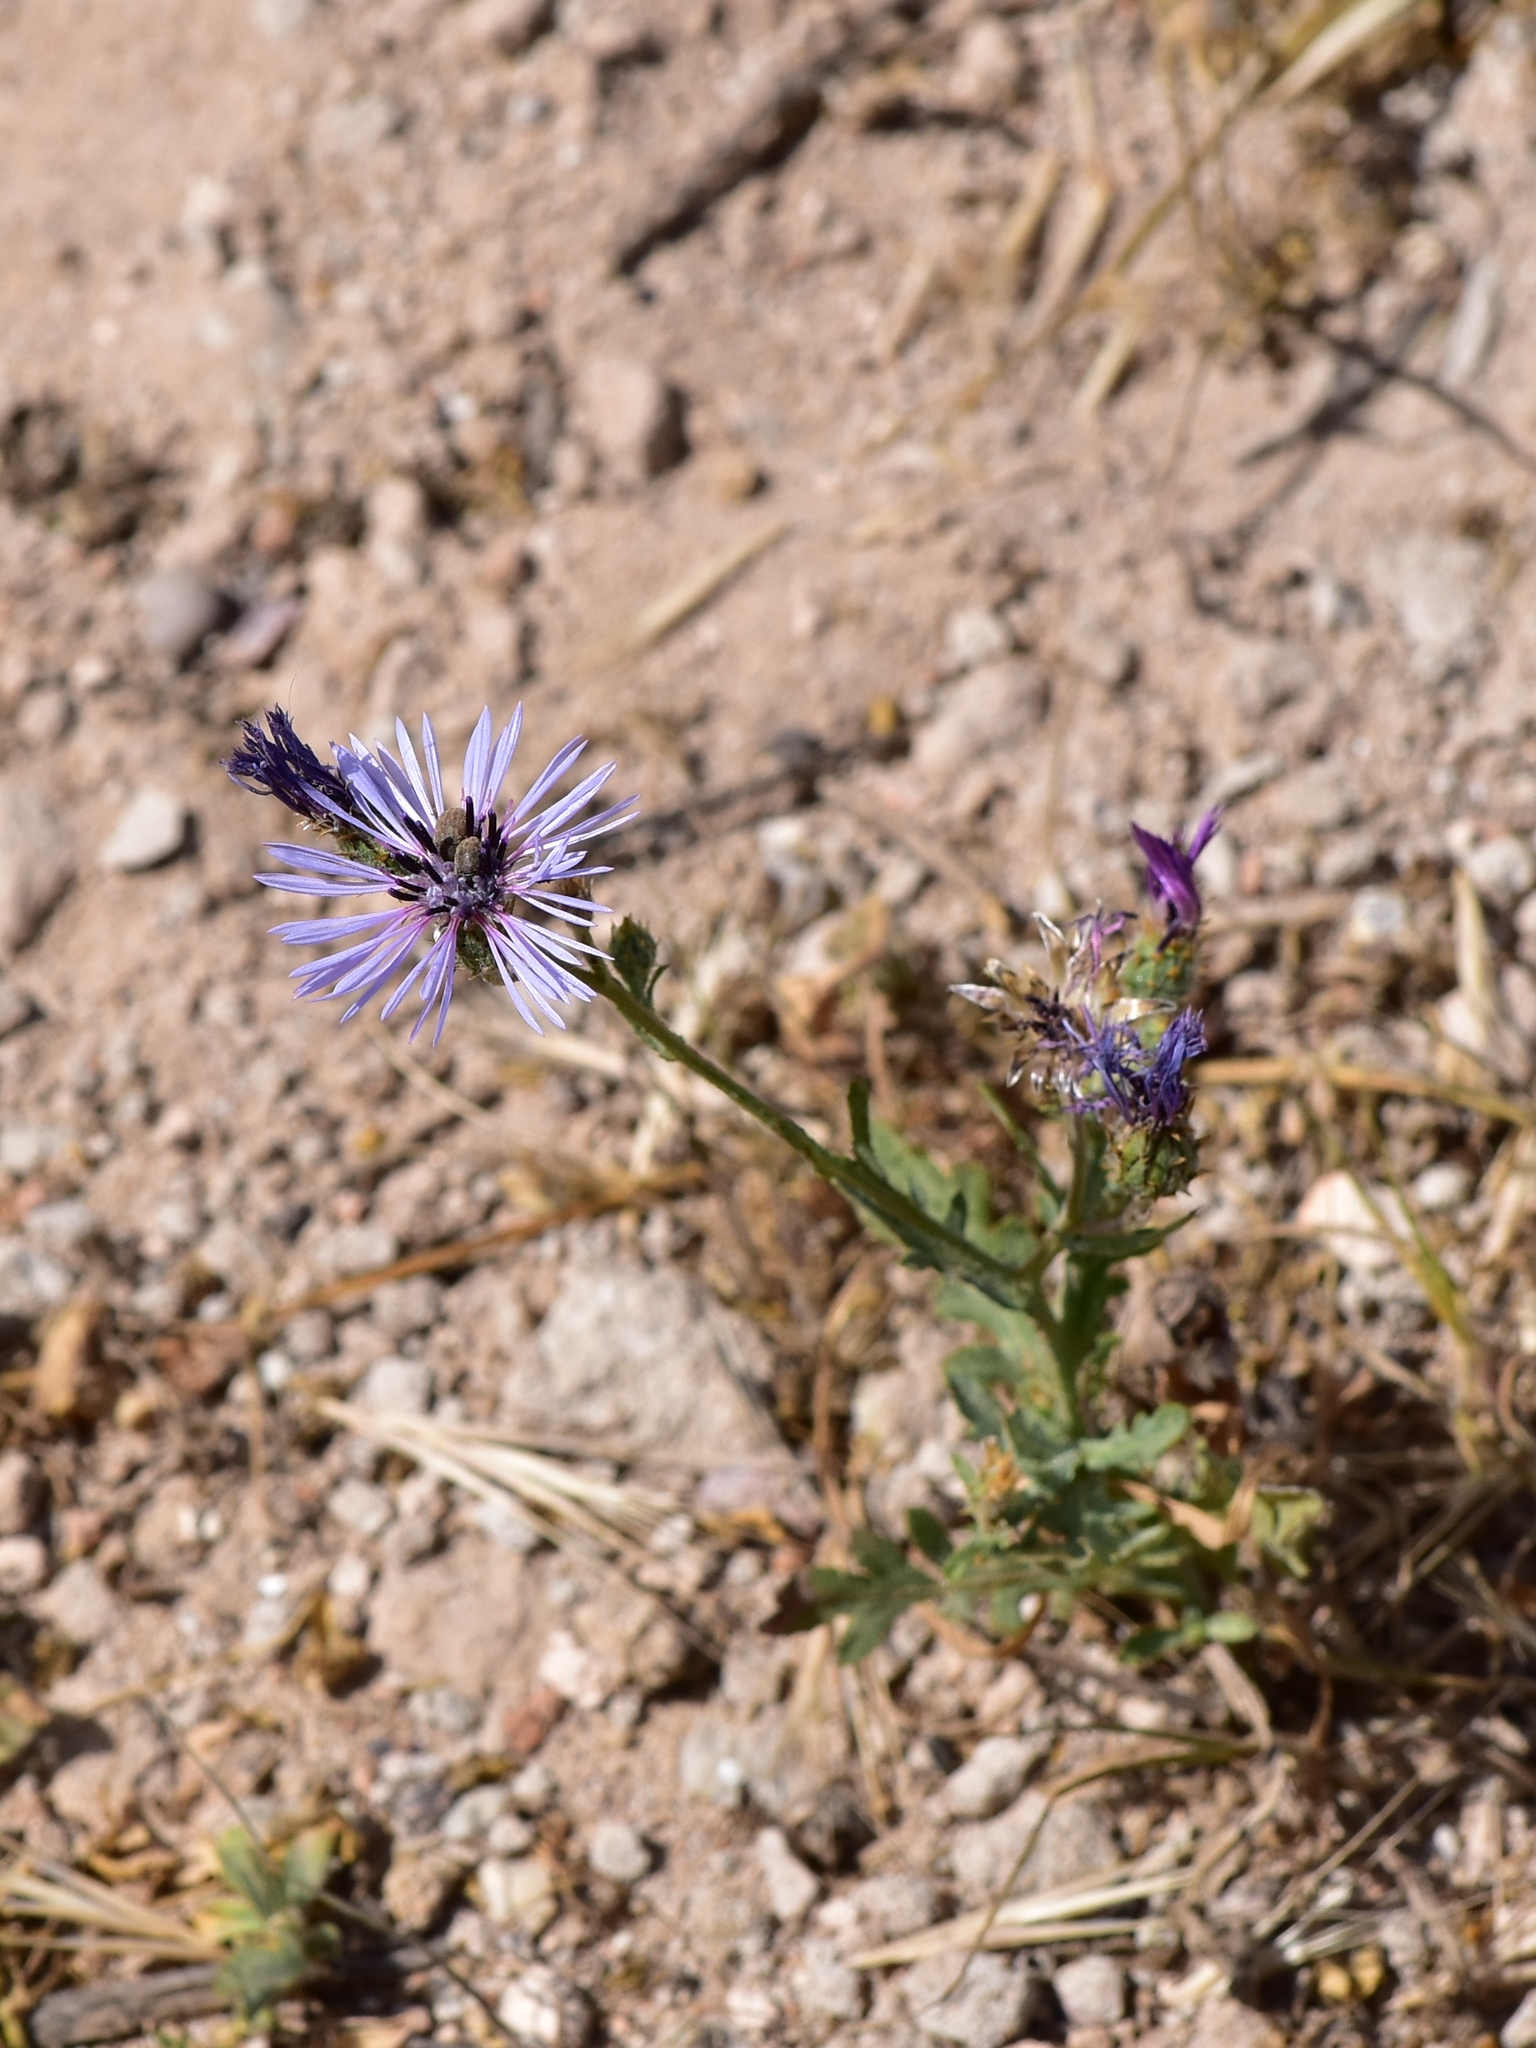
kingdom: Plantae
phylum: Tracheophyta
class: Magnoliopsida
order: Asterales
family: Asteraceae
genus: Volutaria
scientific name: Volutaria lippii
